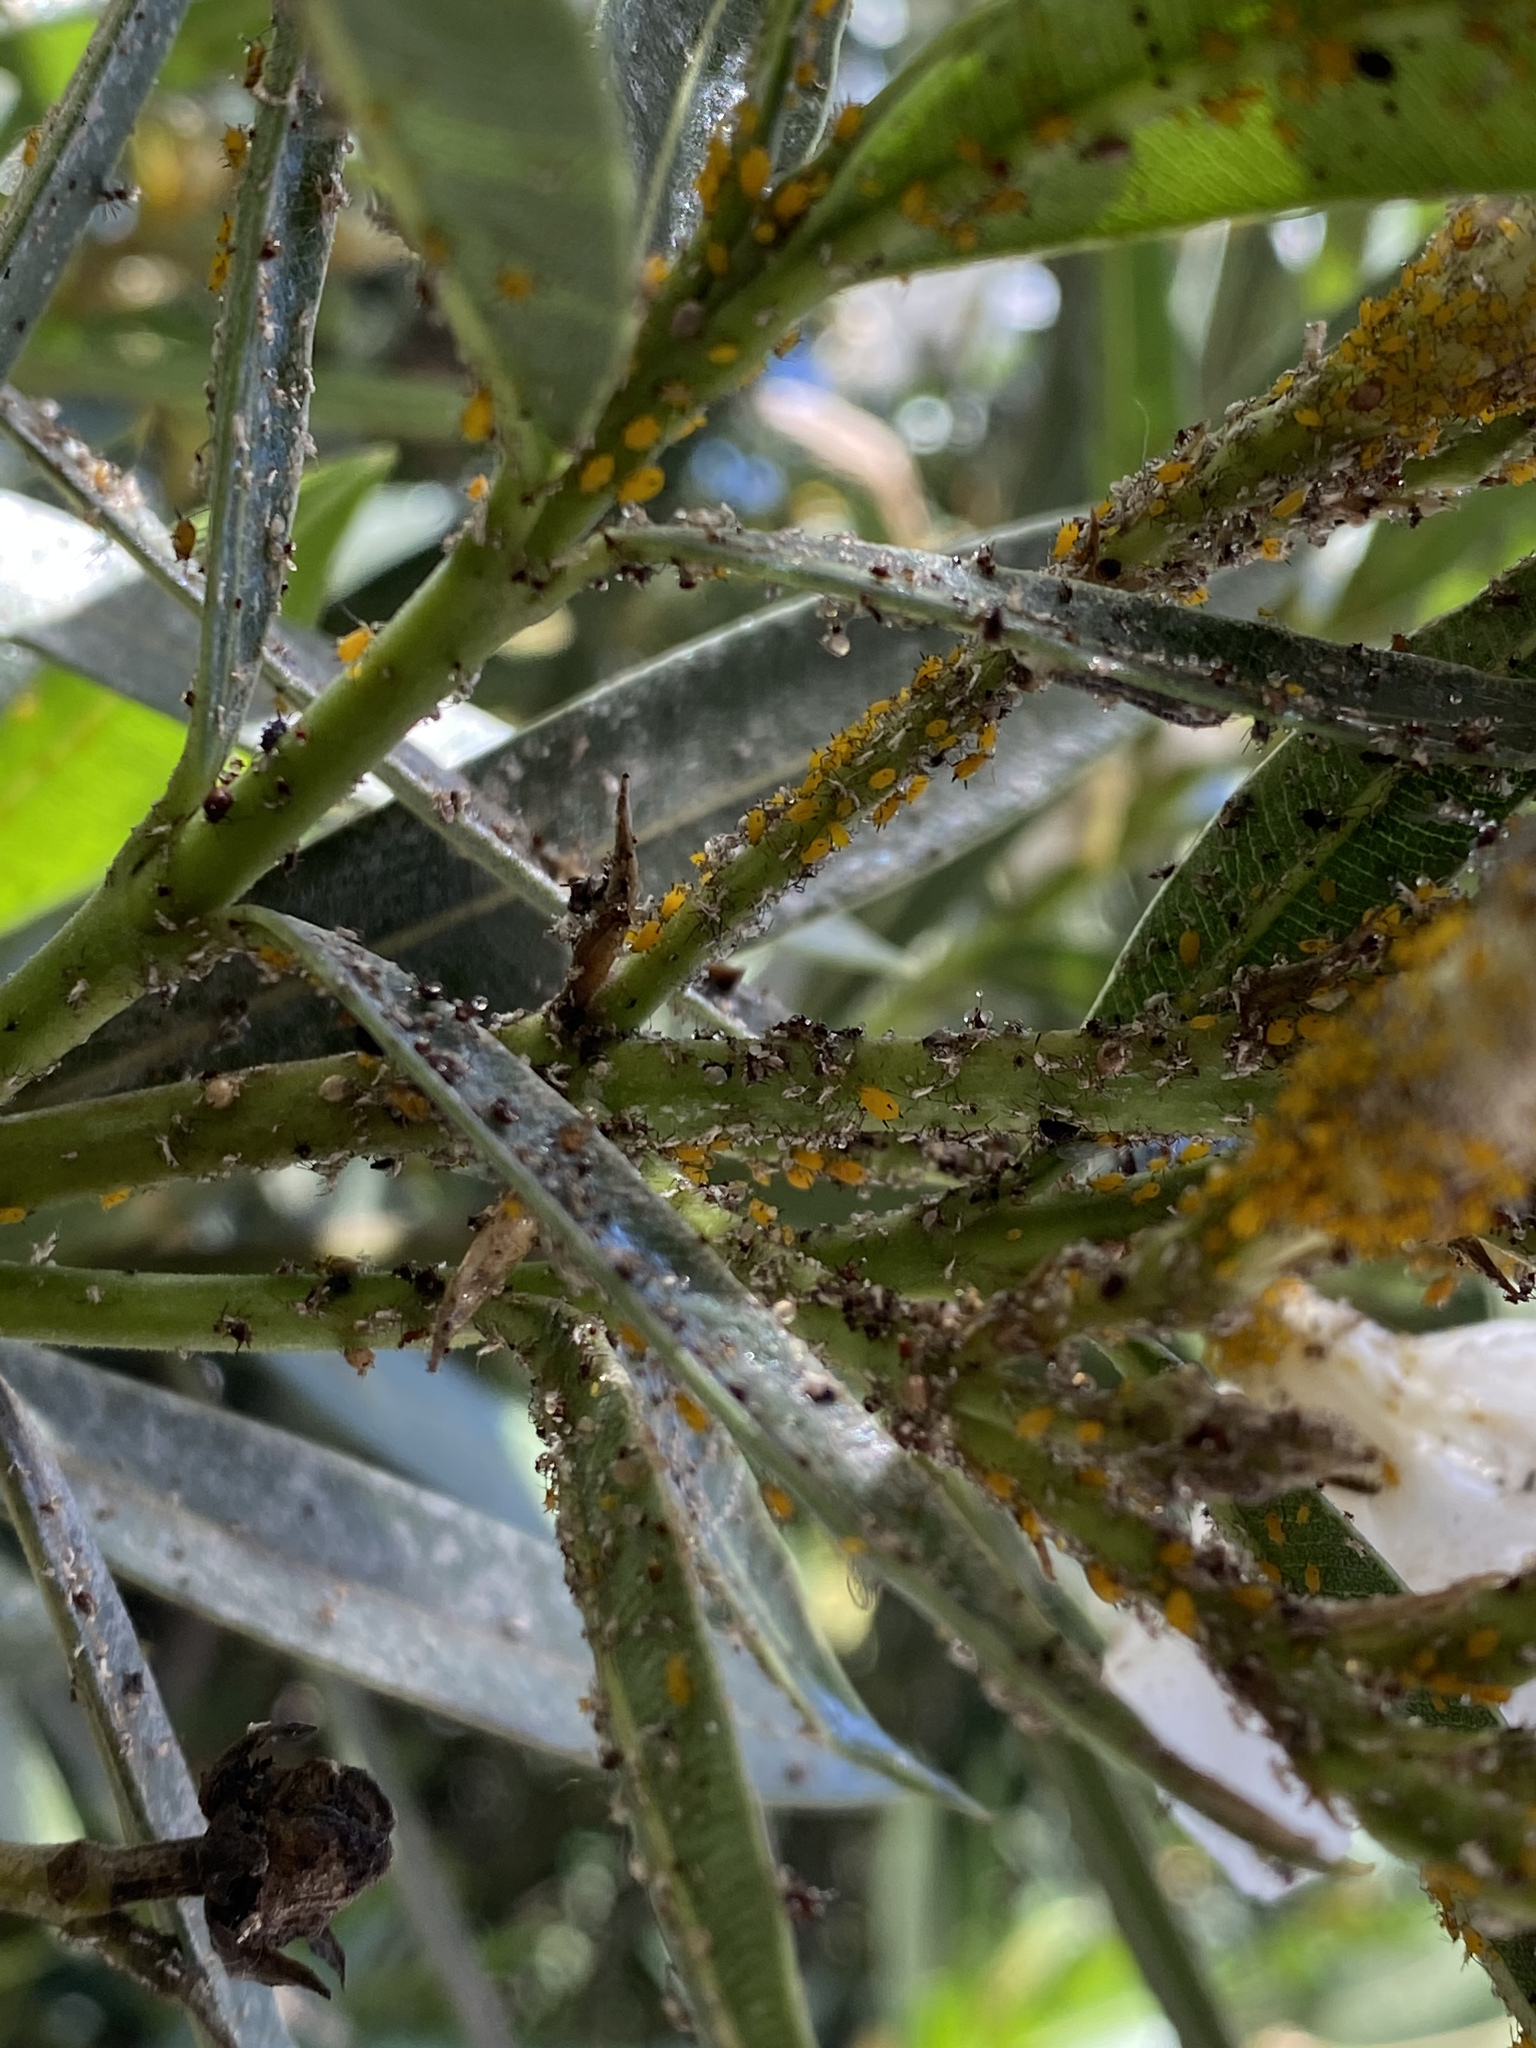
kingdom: Animalia
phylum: Arthropoda
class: Insecta
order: Hemiptera
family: Aphididae
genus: Aphis
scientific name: Aphis nerii
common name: Oleander aphid
